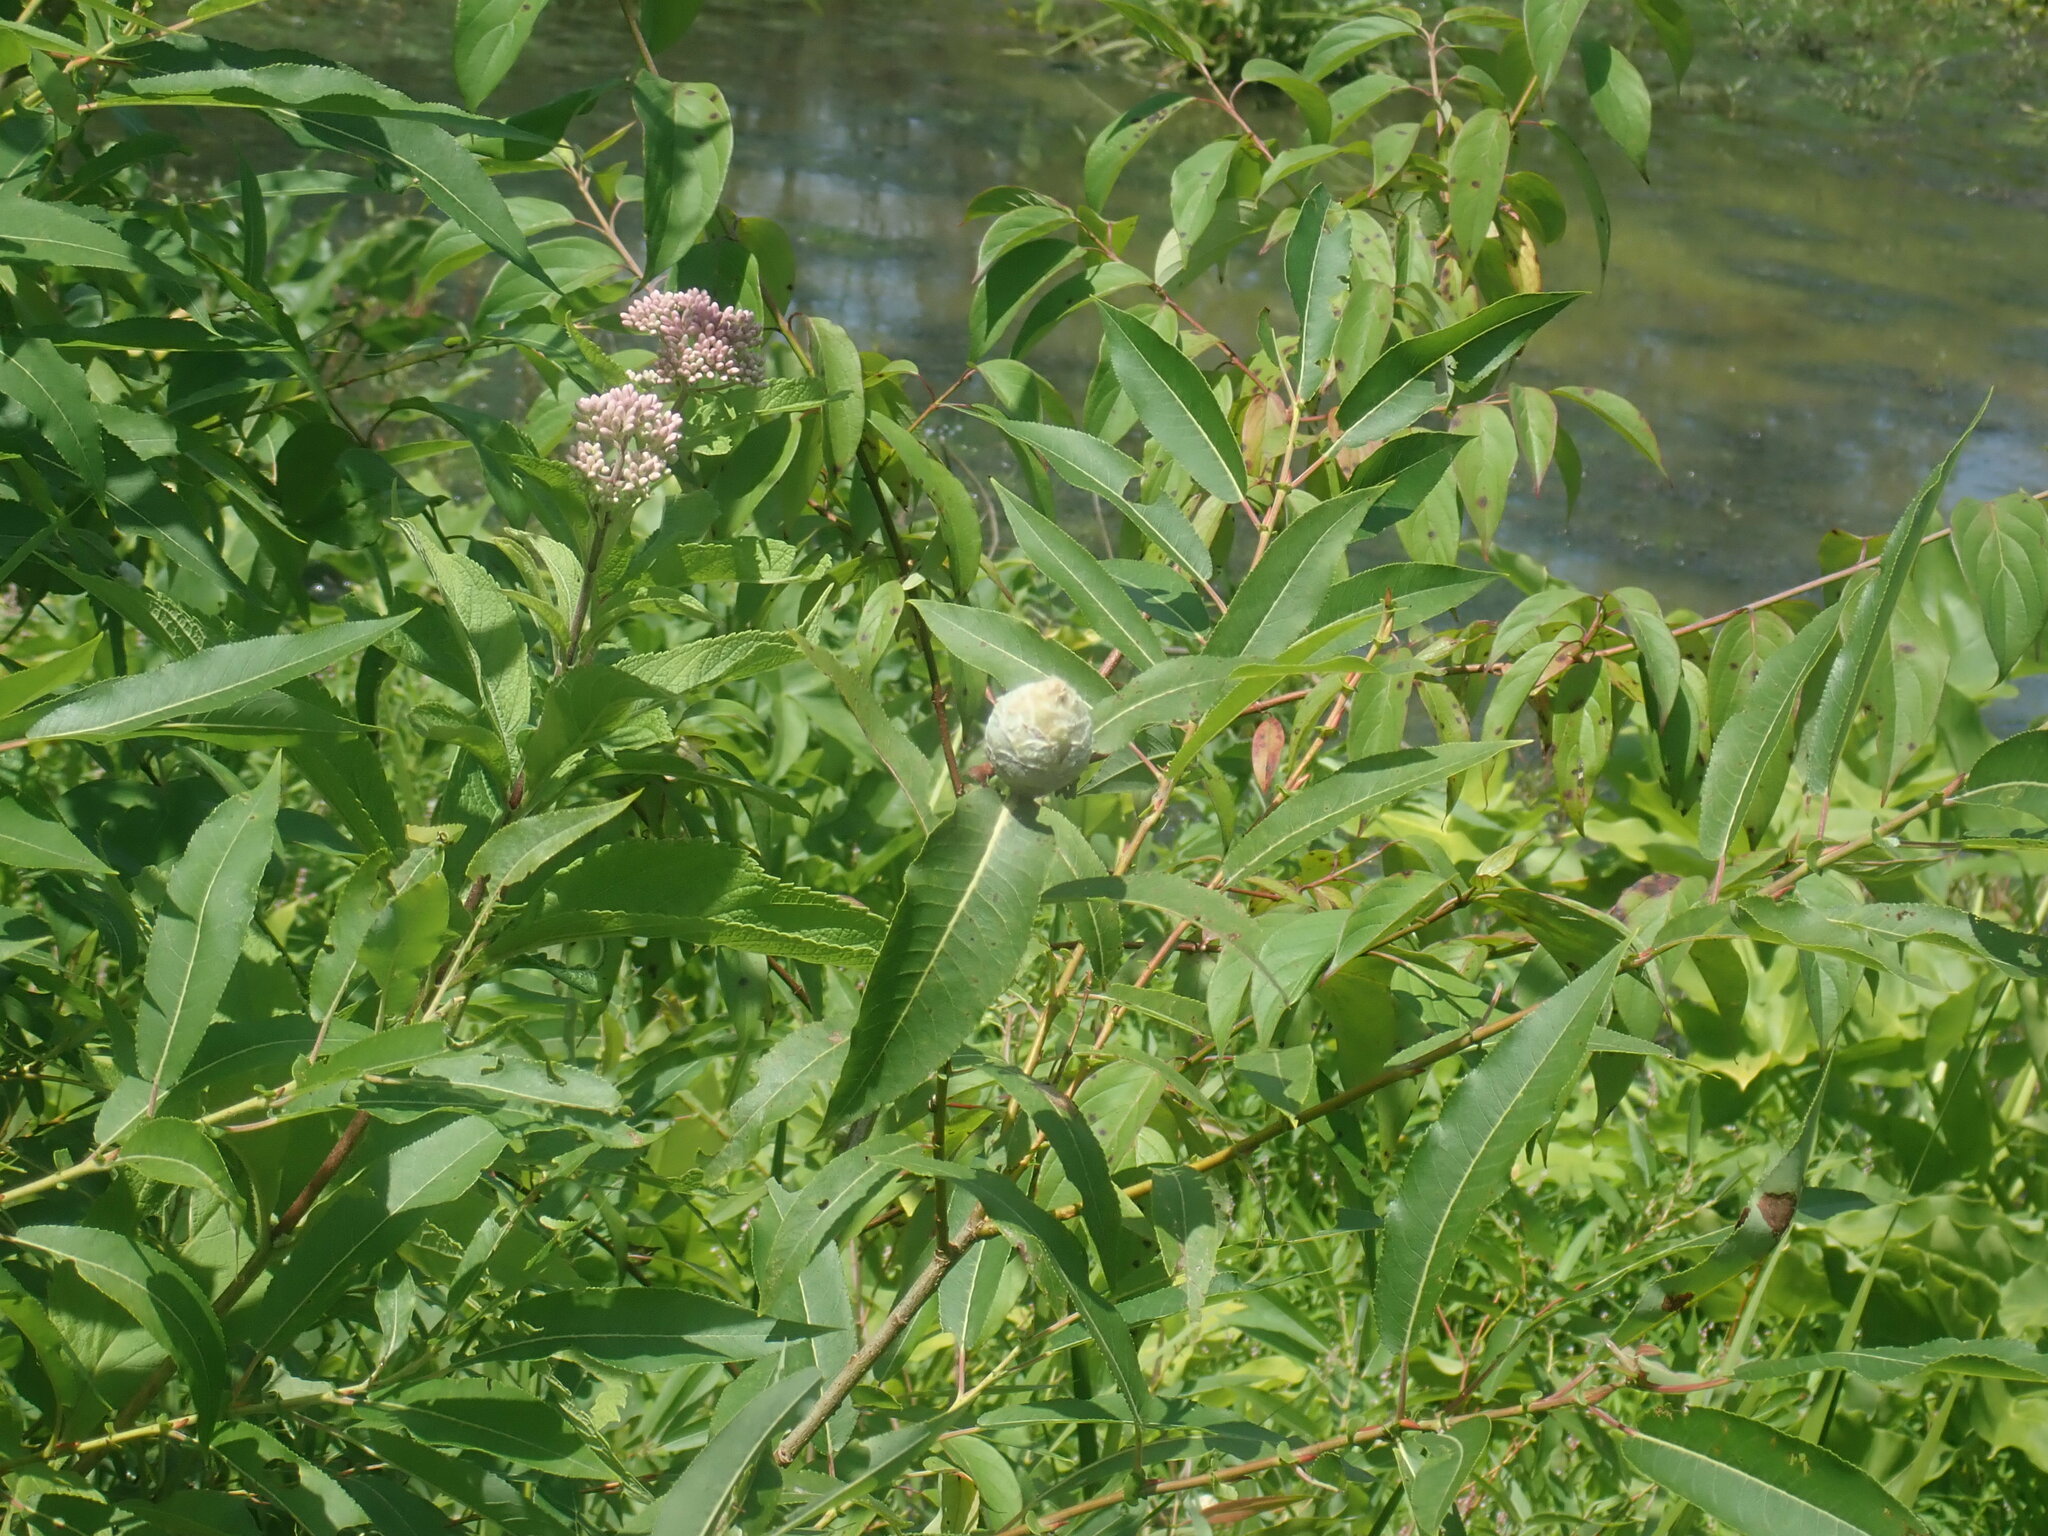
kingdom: Animalia
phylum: Arthropoda
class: Insecta
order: Diptera
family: Cecidomyiidae
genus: Rabdophaga
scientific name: Rabdophaga strobiloides
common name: Willow pinecone gall midge
